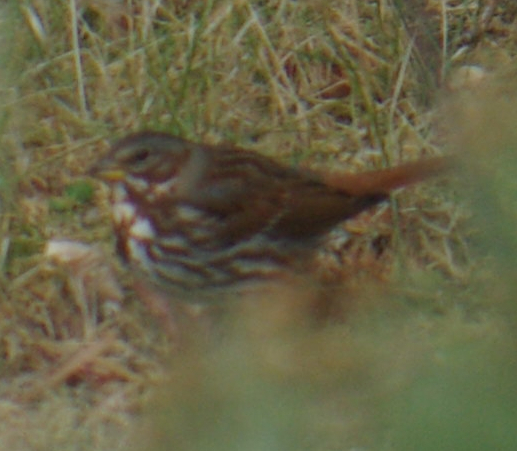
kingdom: Animalia
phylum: Chordata
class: Aves
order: Passeriformes
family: Passerellidae
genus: Passerella
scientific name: Passerella iliaca
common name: Fox sparrow
